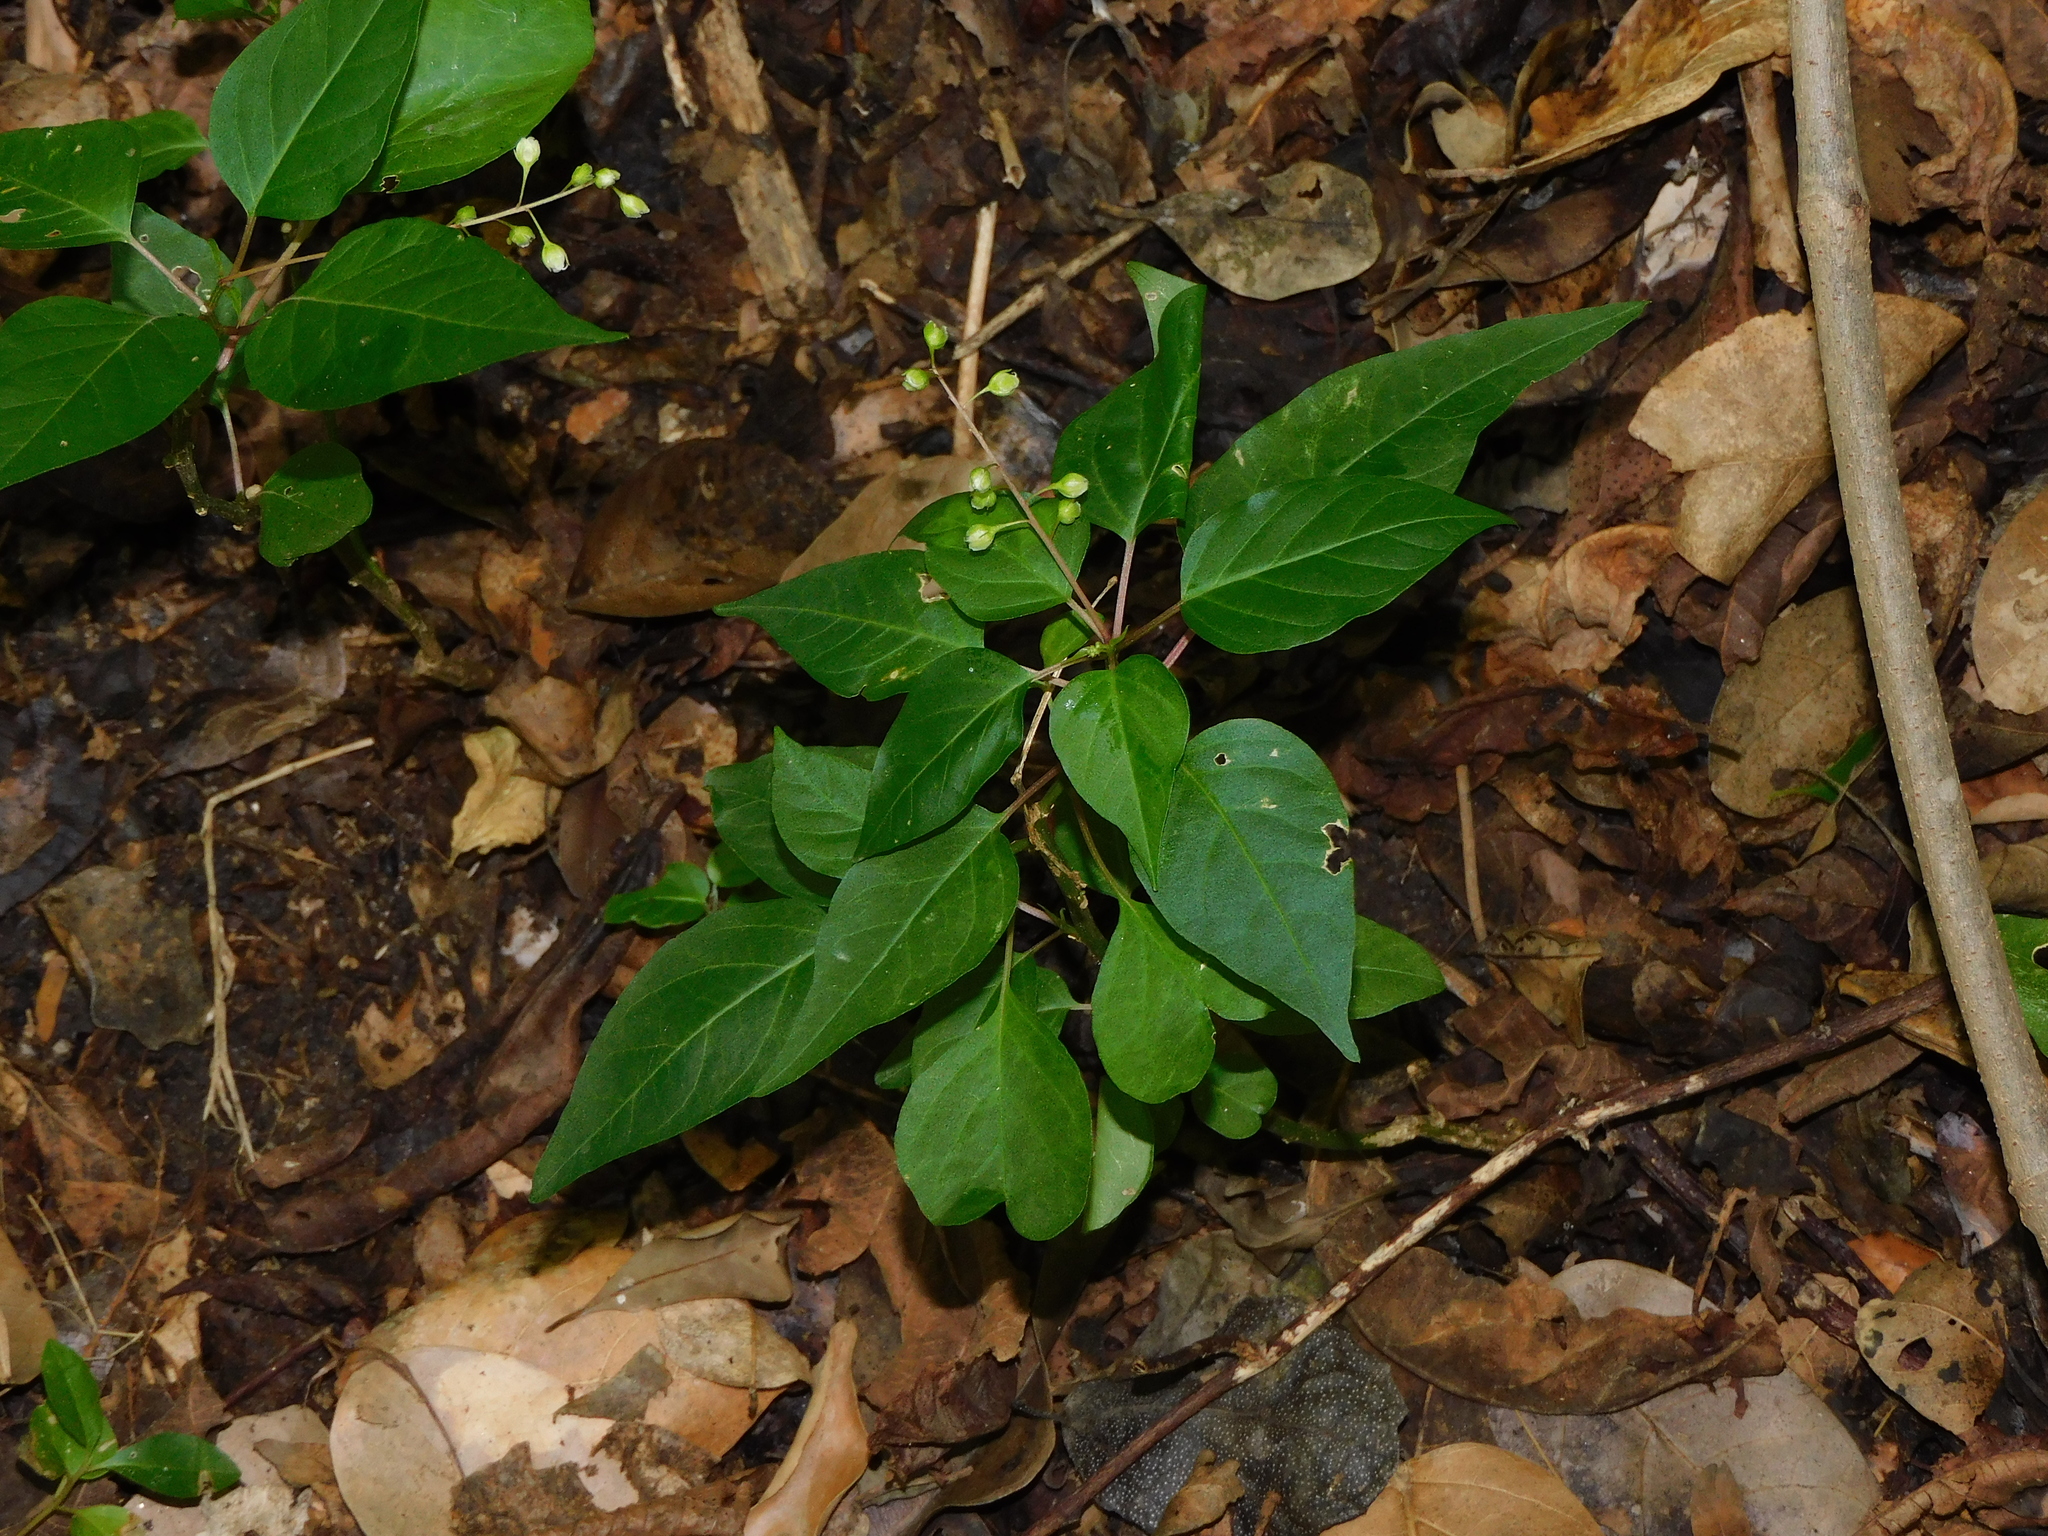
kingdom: Plantae
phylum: Tracheophyta
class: Magnoliopsida
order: Caryophyllales
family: Phytolaccaceae
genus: Rivina
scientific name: Rivina humilis
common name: Rougeplant
